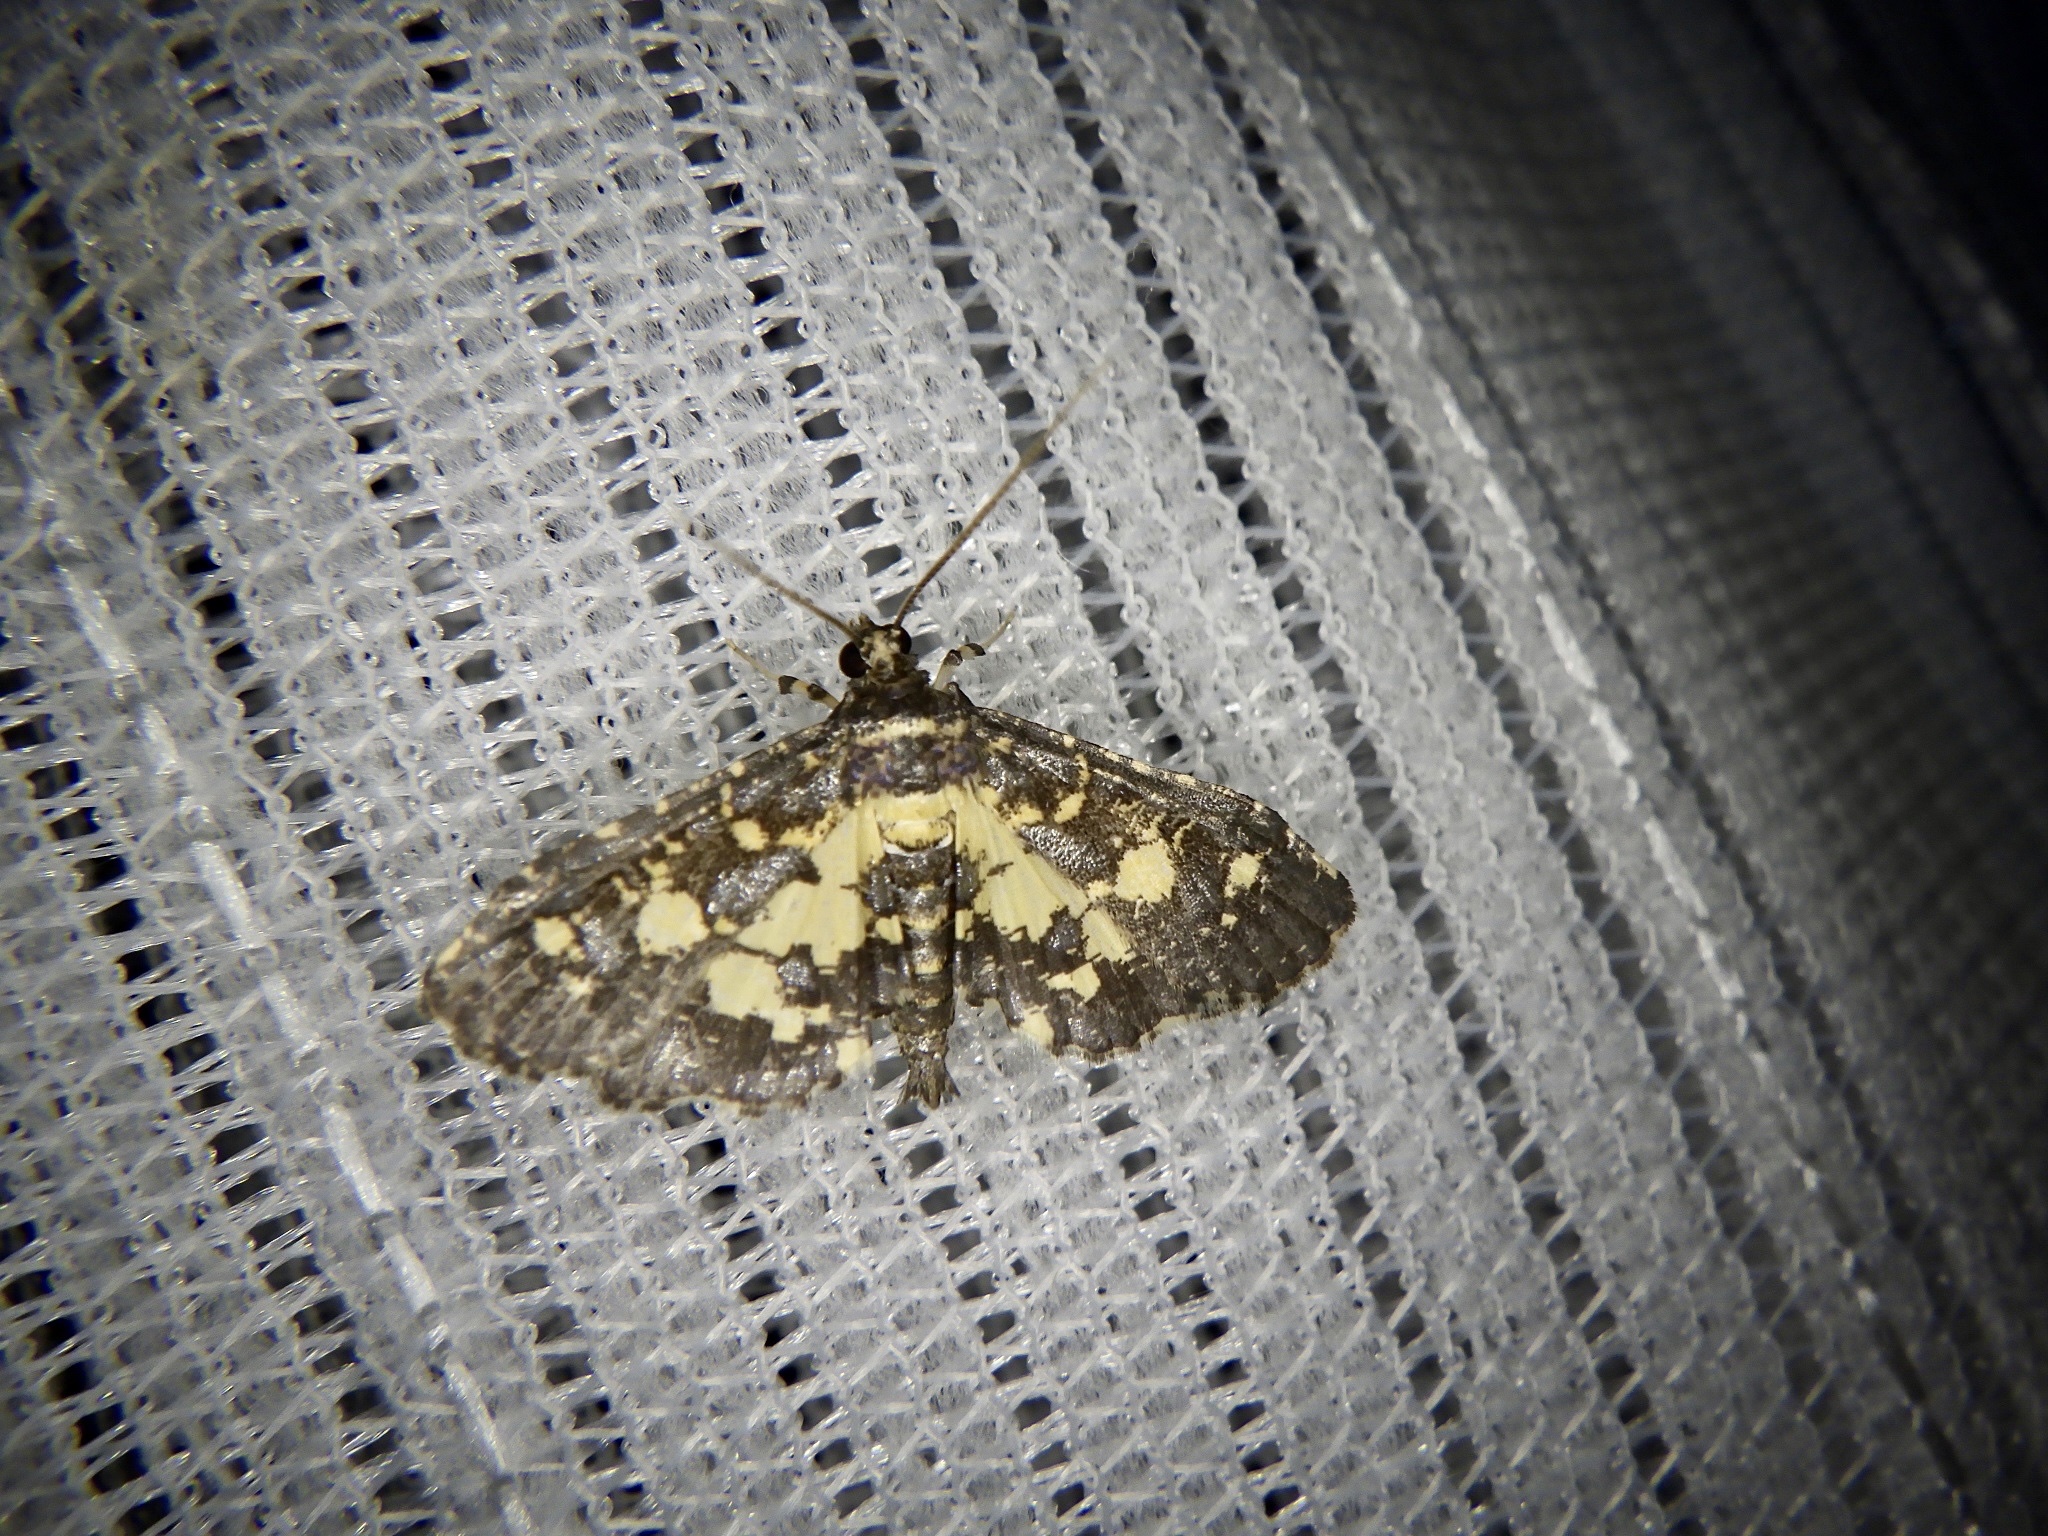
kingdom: Animalia
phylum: Arthropoda
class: Insecta
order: Lepidoptera
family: Crambidae
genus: Eurrhyparodes
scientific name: Eurrhyparodes bracteolalis
